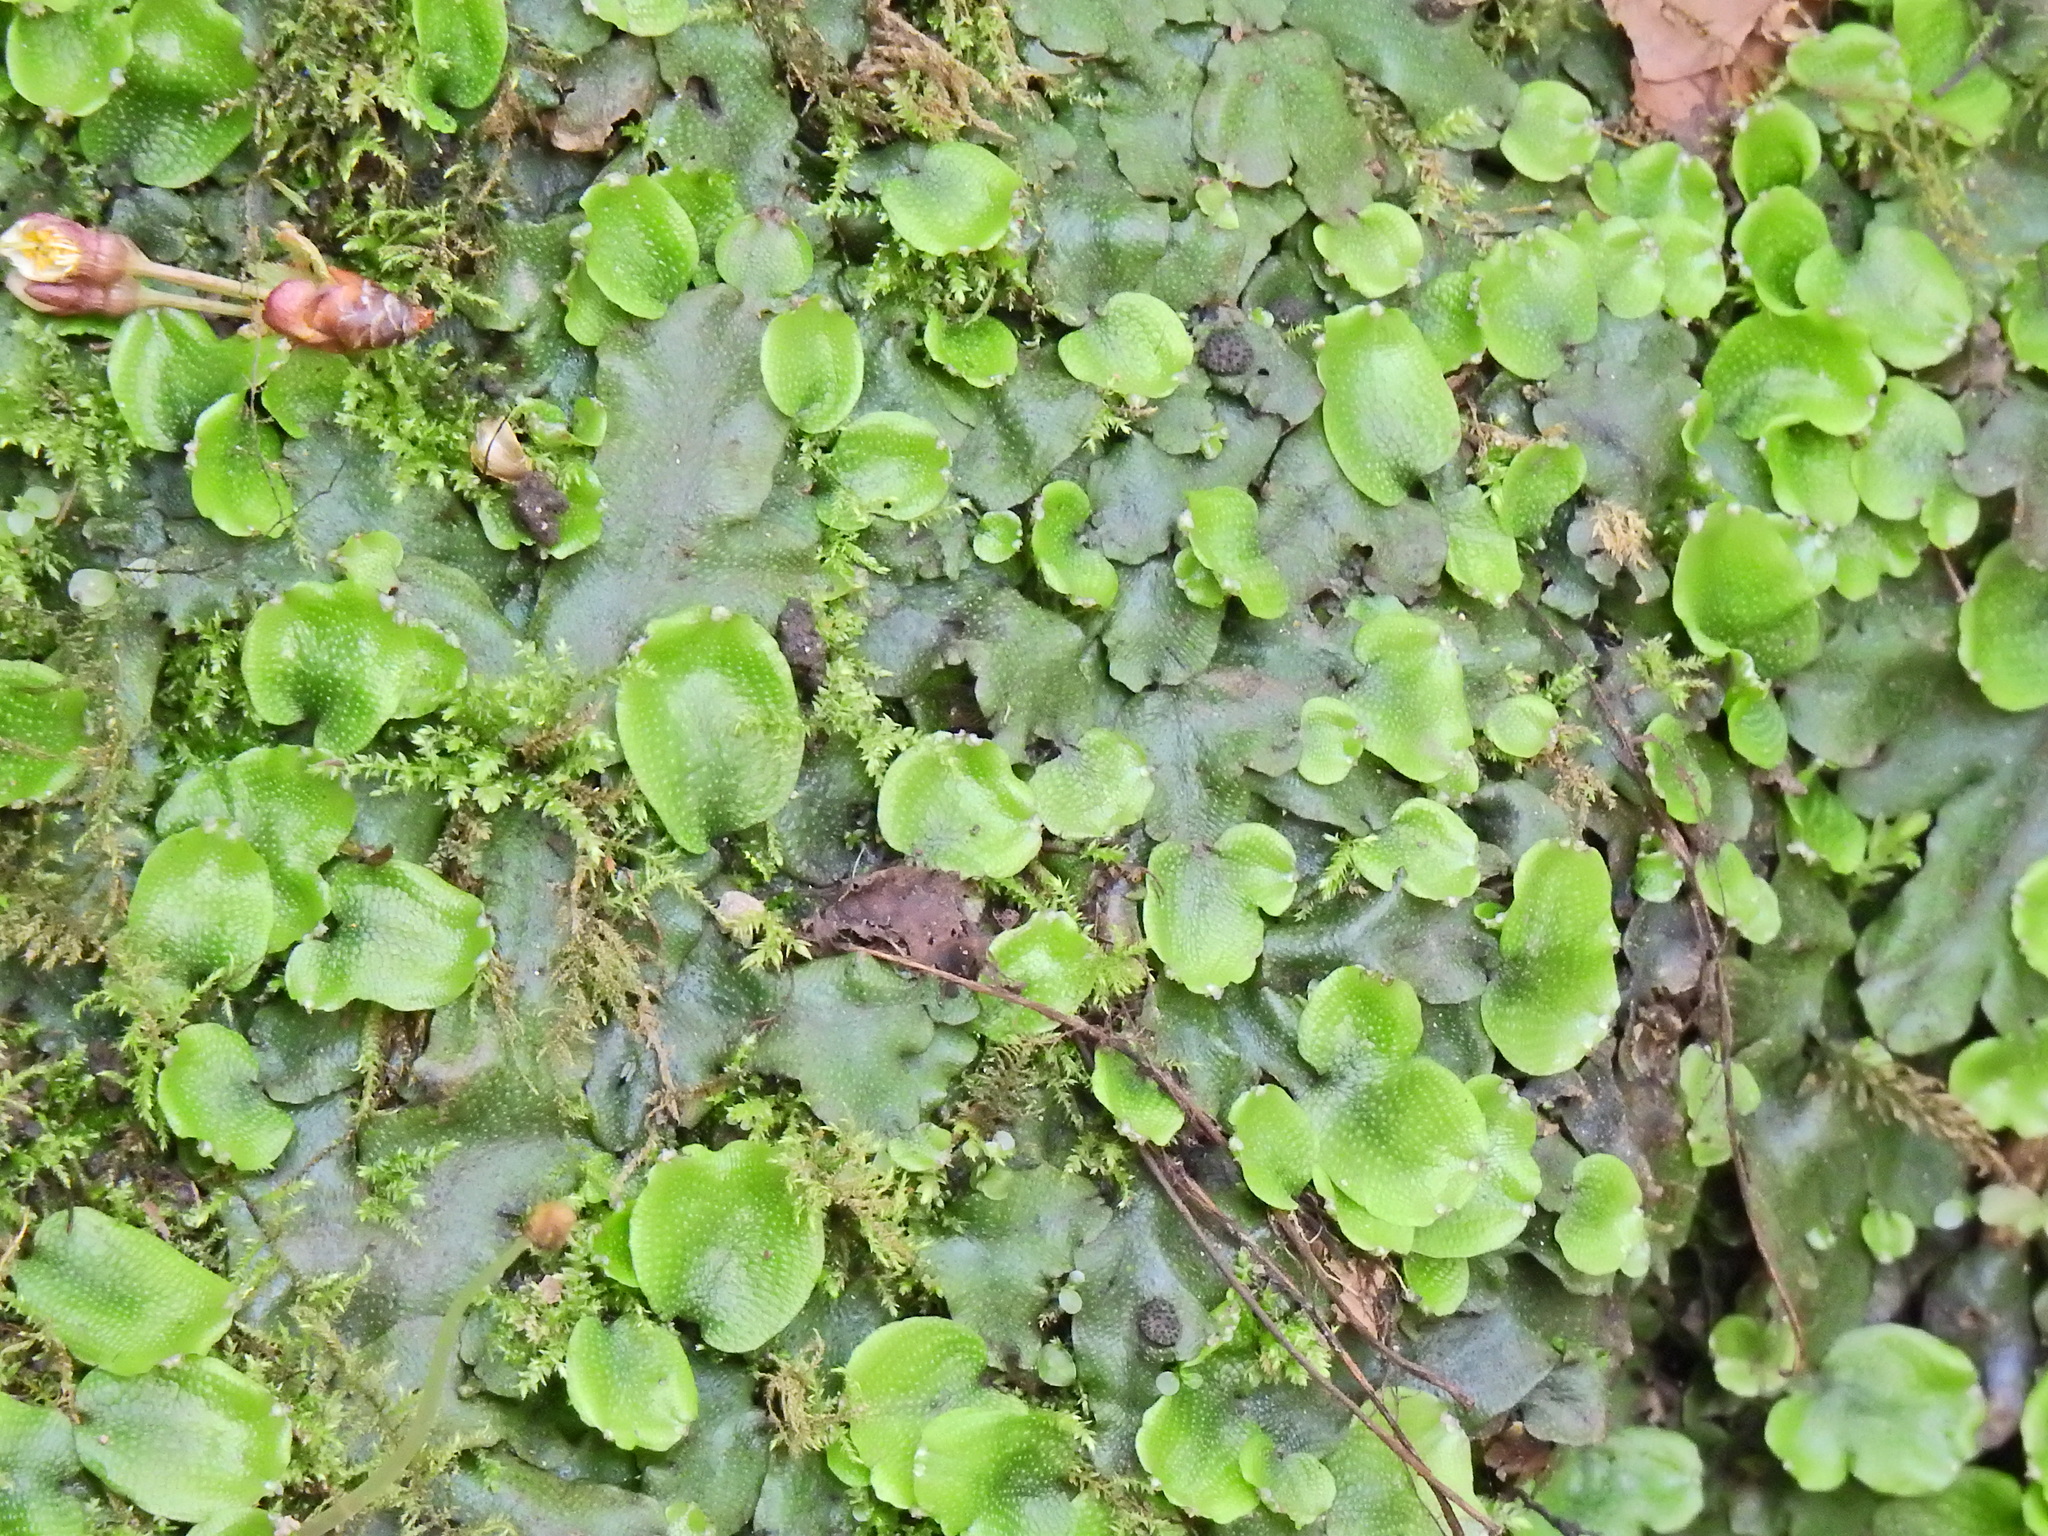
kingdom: Plantae
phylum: Marchantiophyta
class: Marchantiopsida
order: Marchantiales
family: Conocephalaceae
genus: Conocephalum
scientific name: Conocephalum conicum
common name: Great scented liverwort
